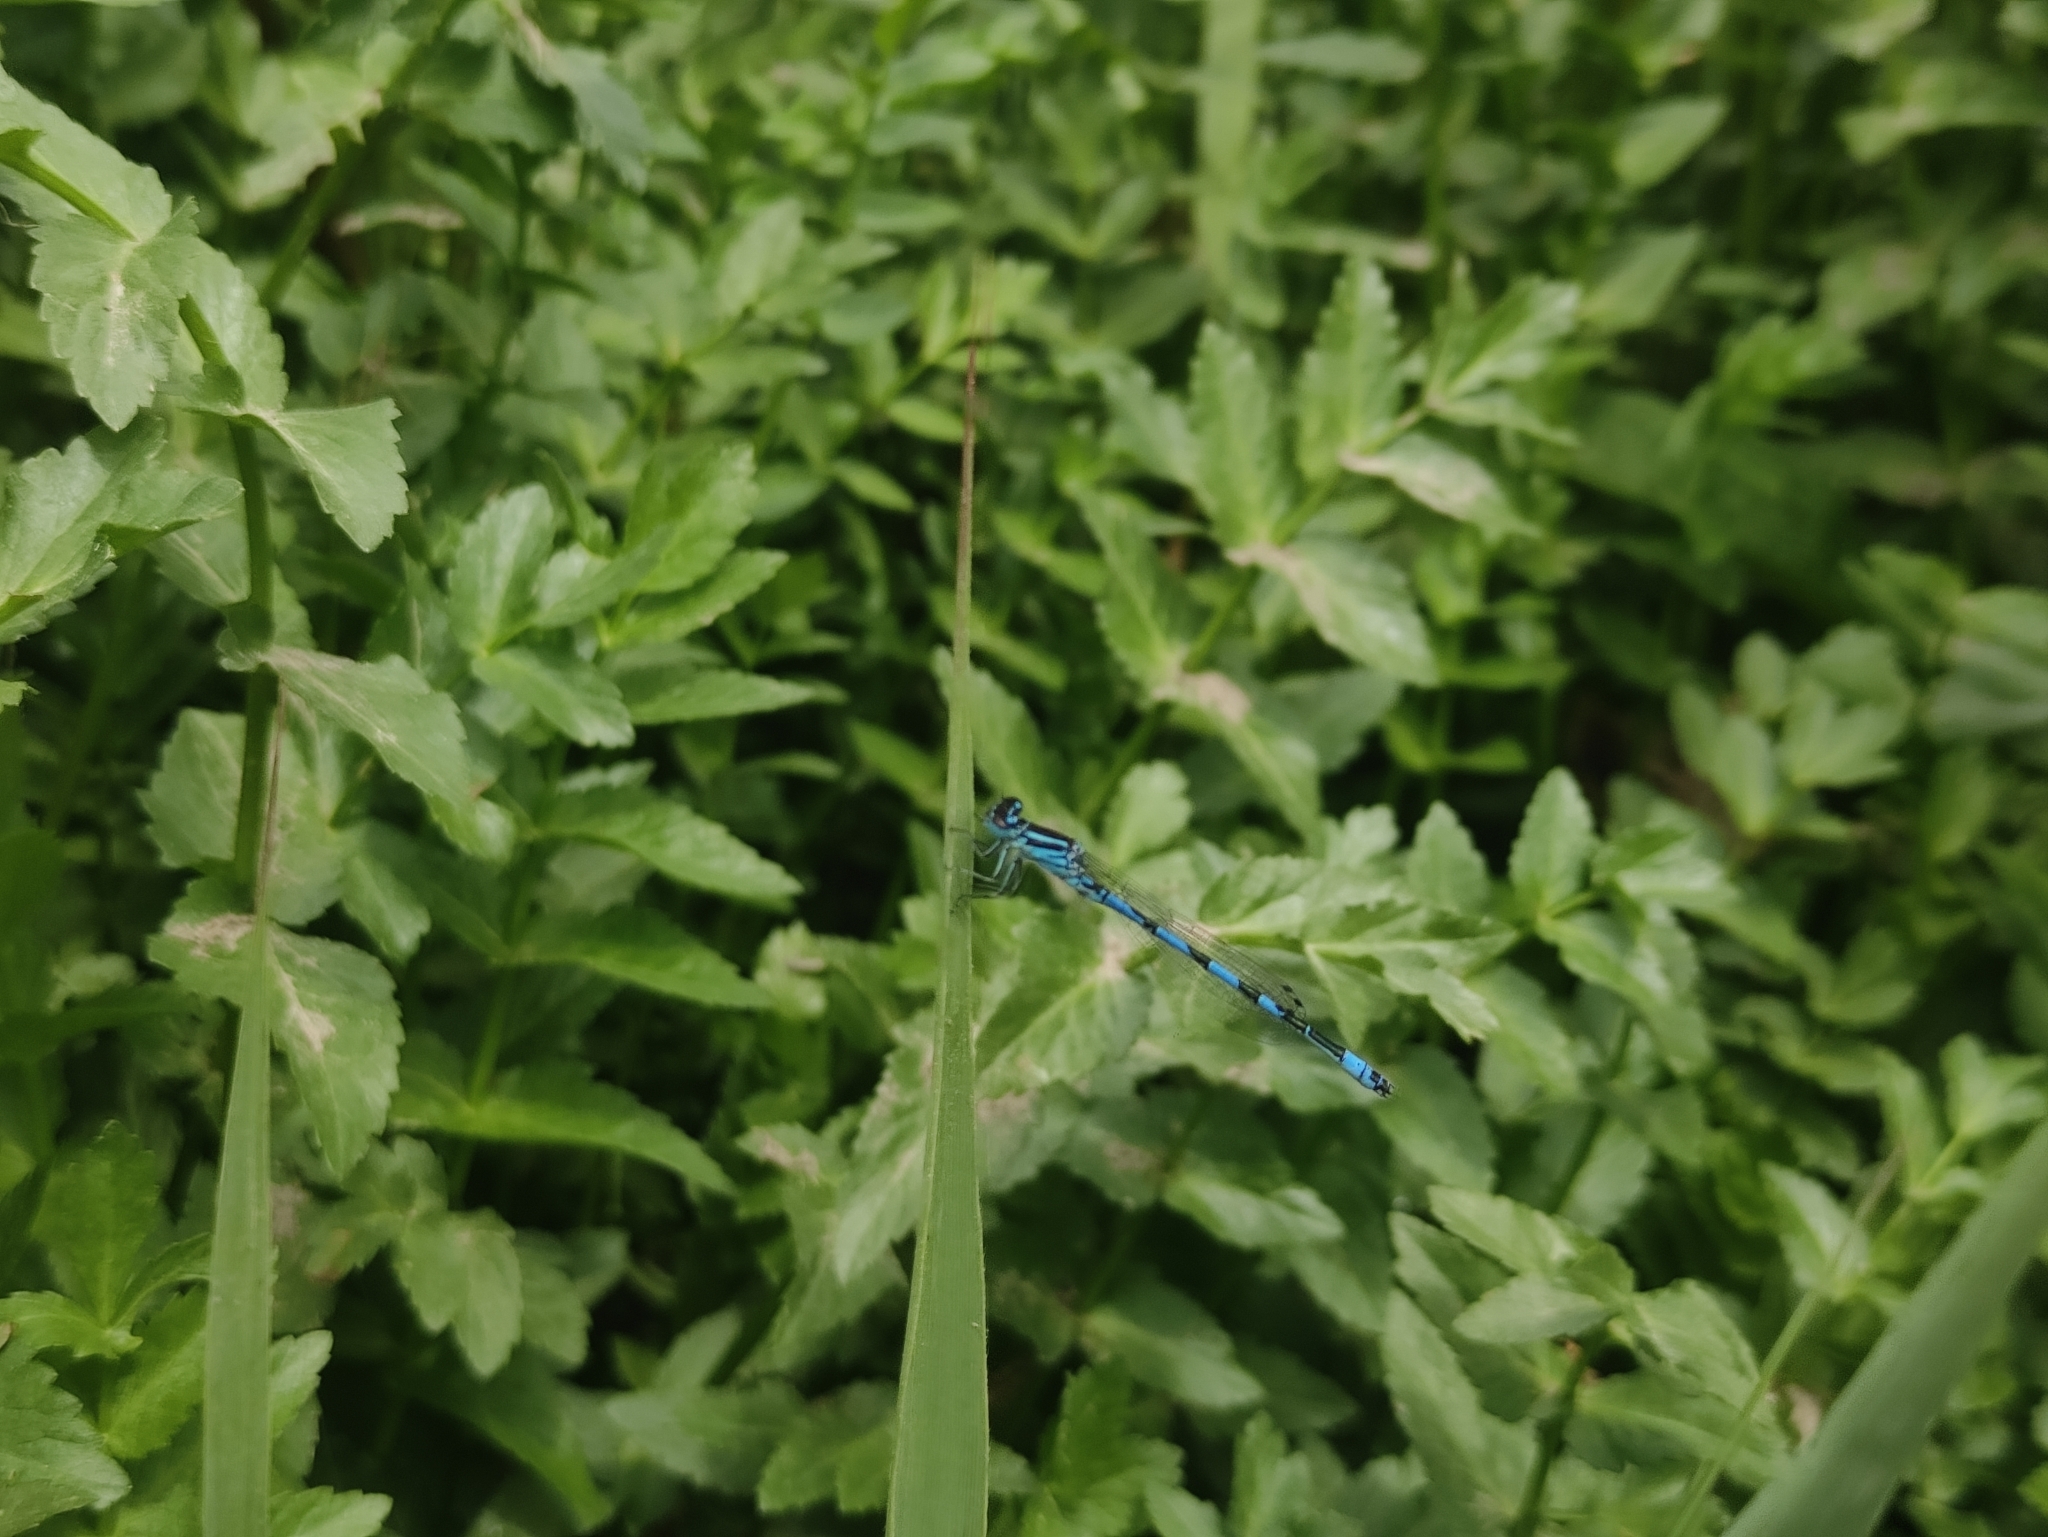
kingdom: Animalia
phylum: Arthropoda
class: Insecta
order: Odonata
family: Coenagrionidae
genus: Coenagrion
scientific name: Coenagrion mercuriale
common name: Southern damselfly
